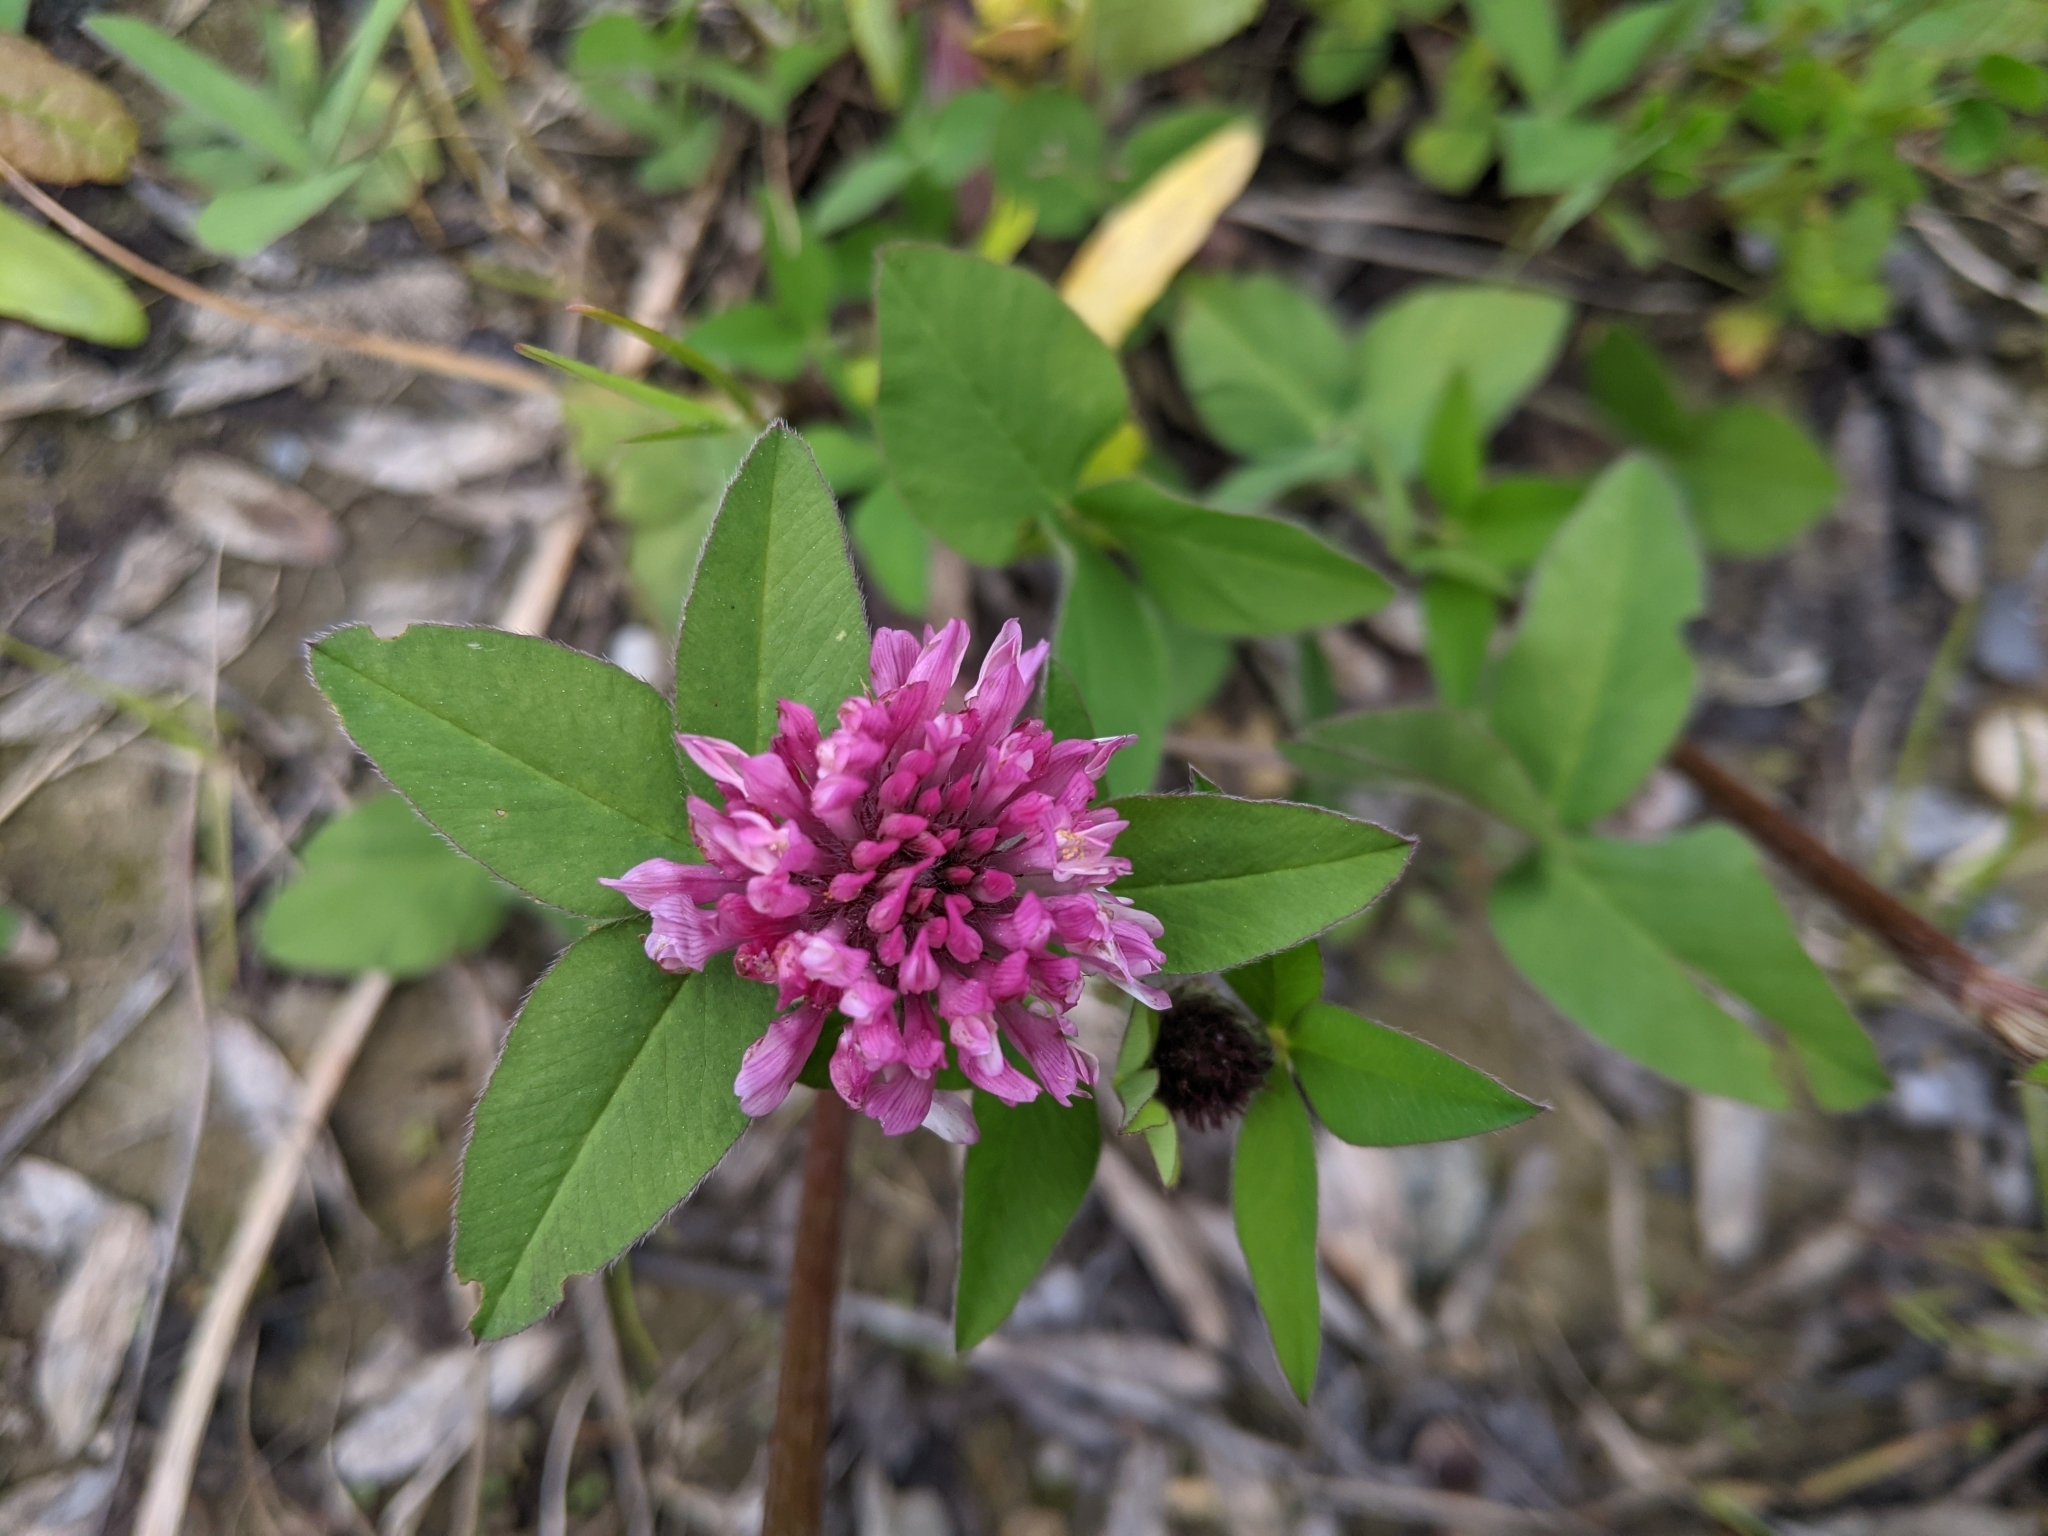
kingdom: Plantae
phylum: Tracheophyta
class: Magnoliopsida
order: Fabales
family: Fabaceae
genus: Trifolium
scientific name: Trifolium pratense
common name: Red clover
